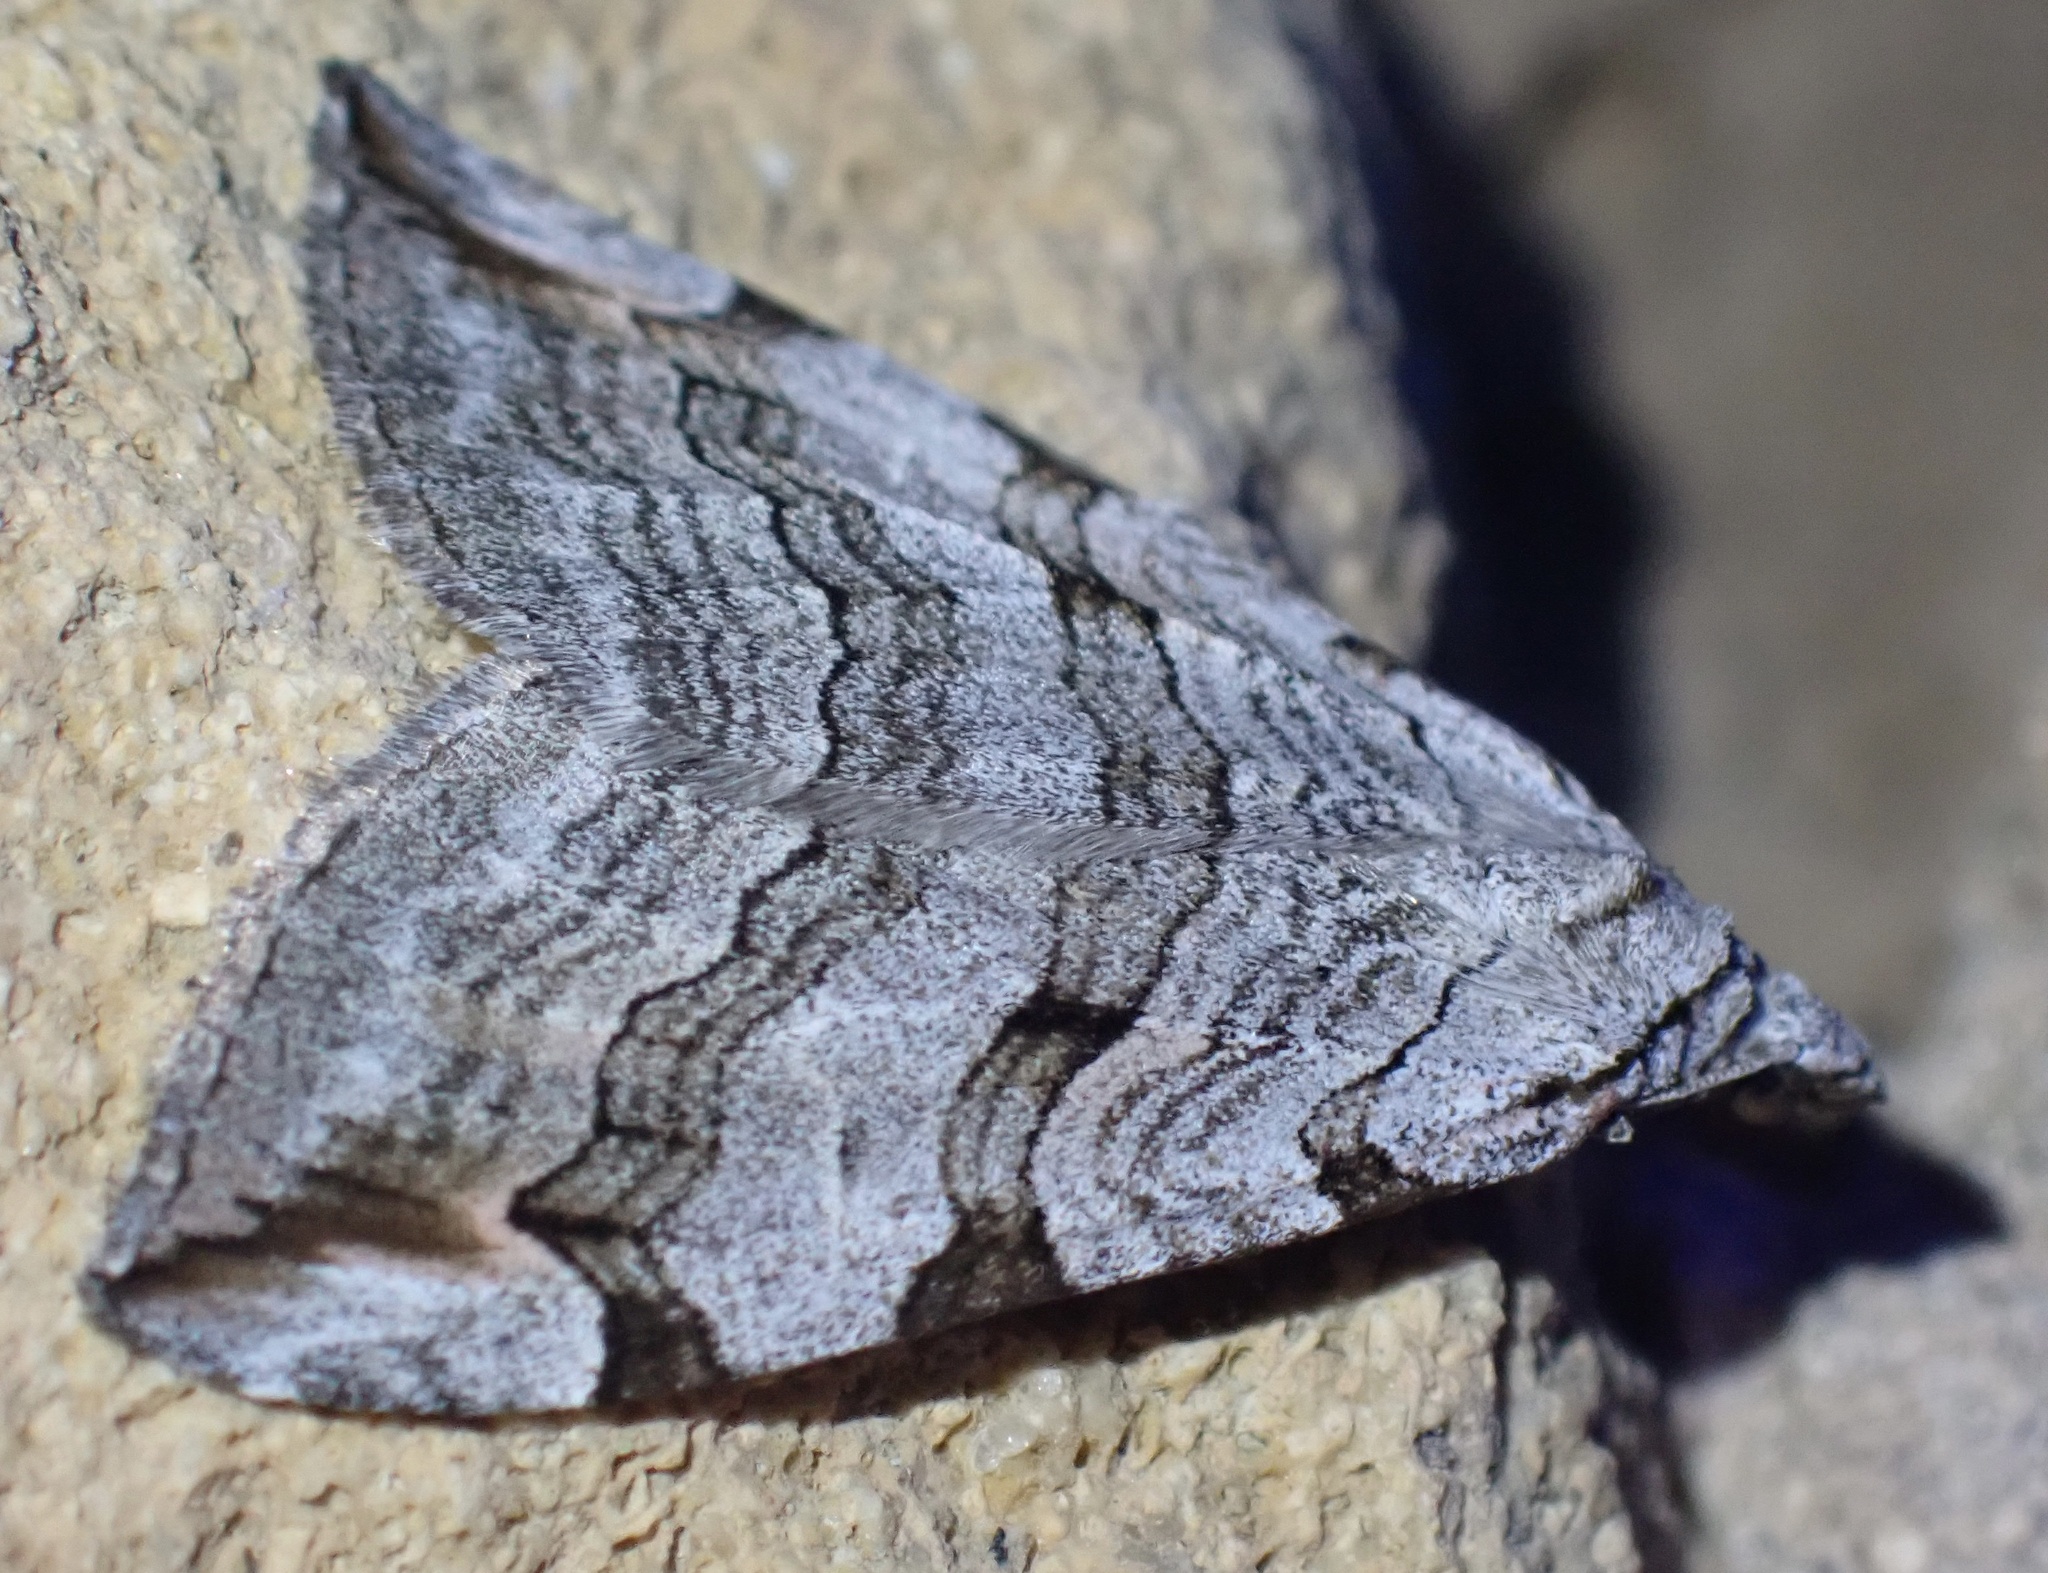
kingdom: Animalia
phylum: Arthropoda
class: Insecta
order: Lepidoptera
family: Geometridae
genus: Aplocera
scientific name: Aplocera plagiata
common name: Treble-bar
